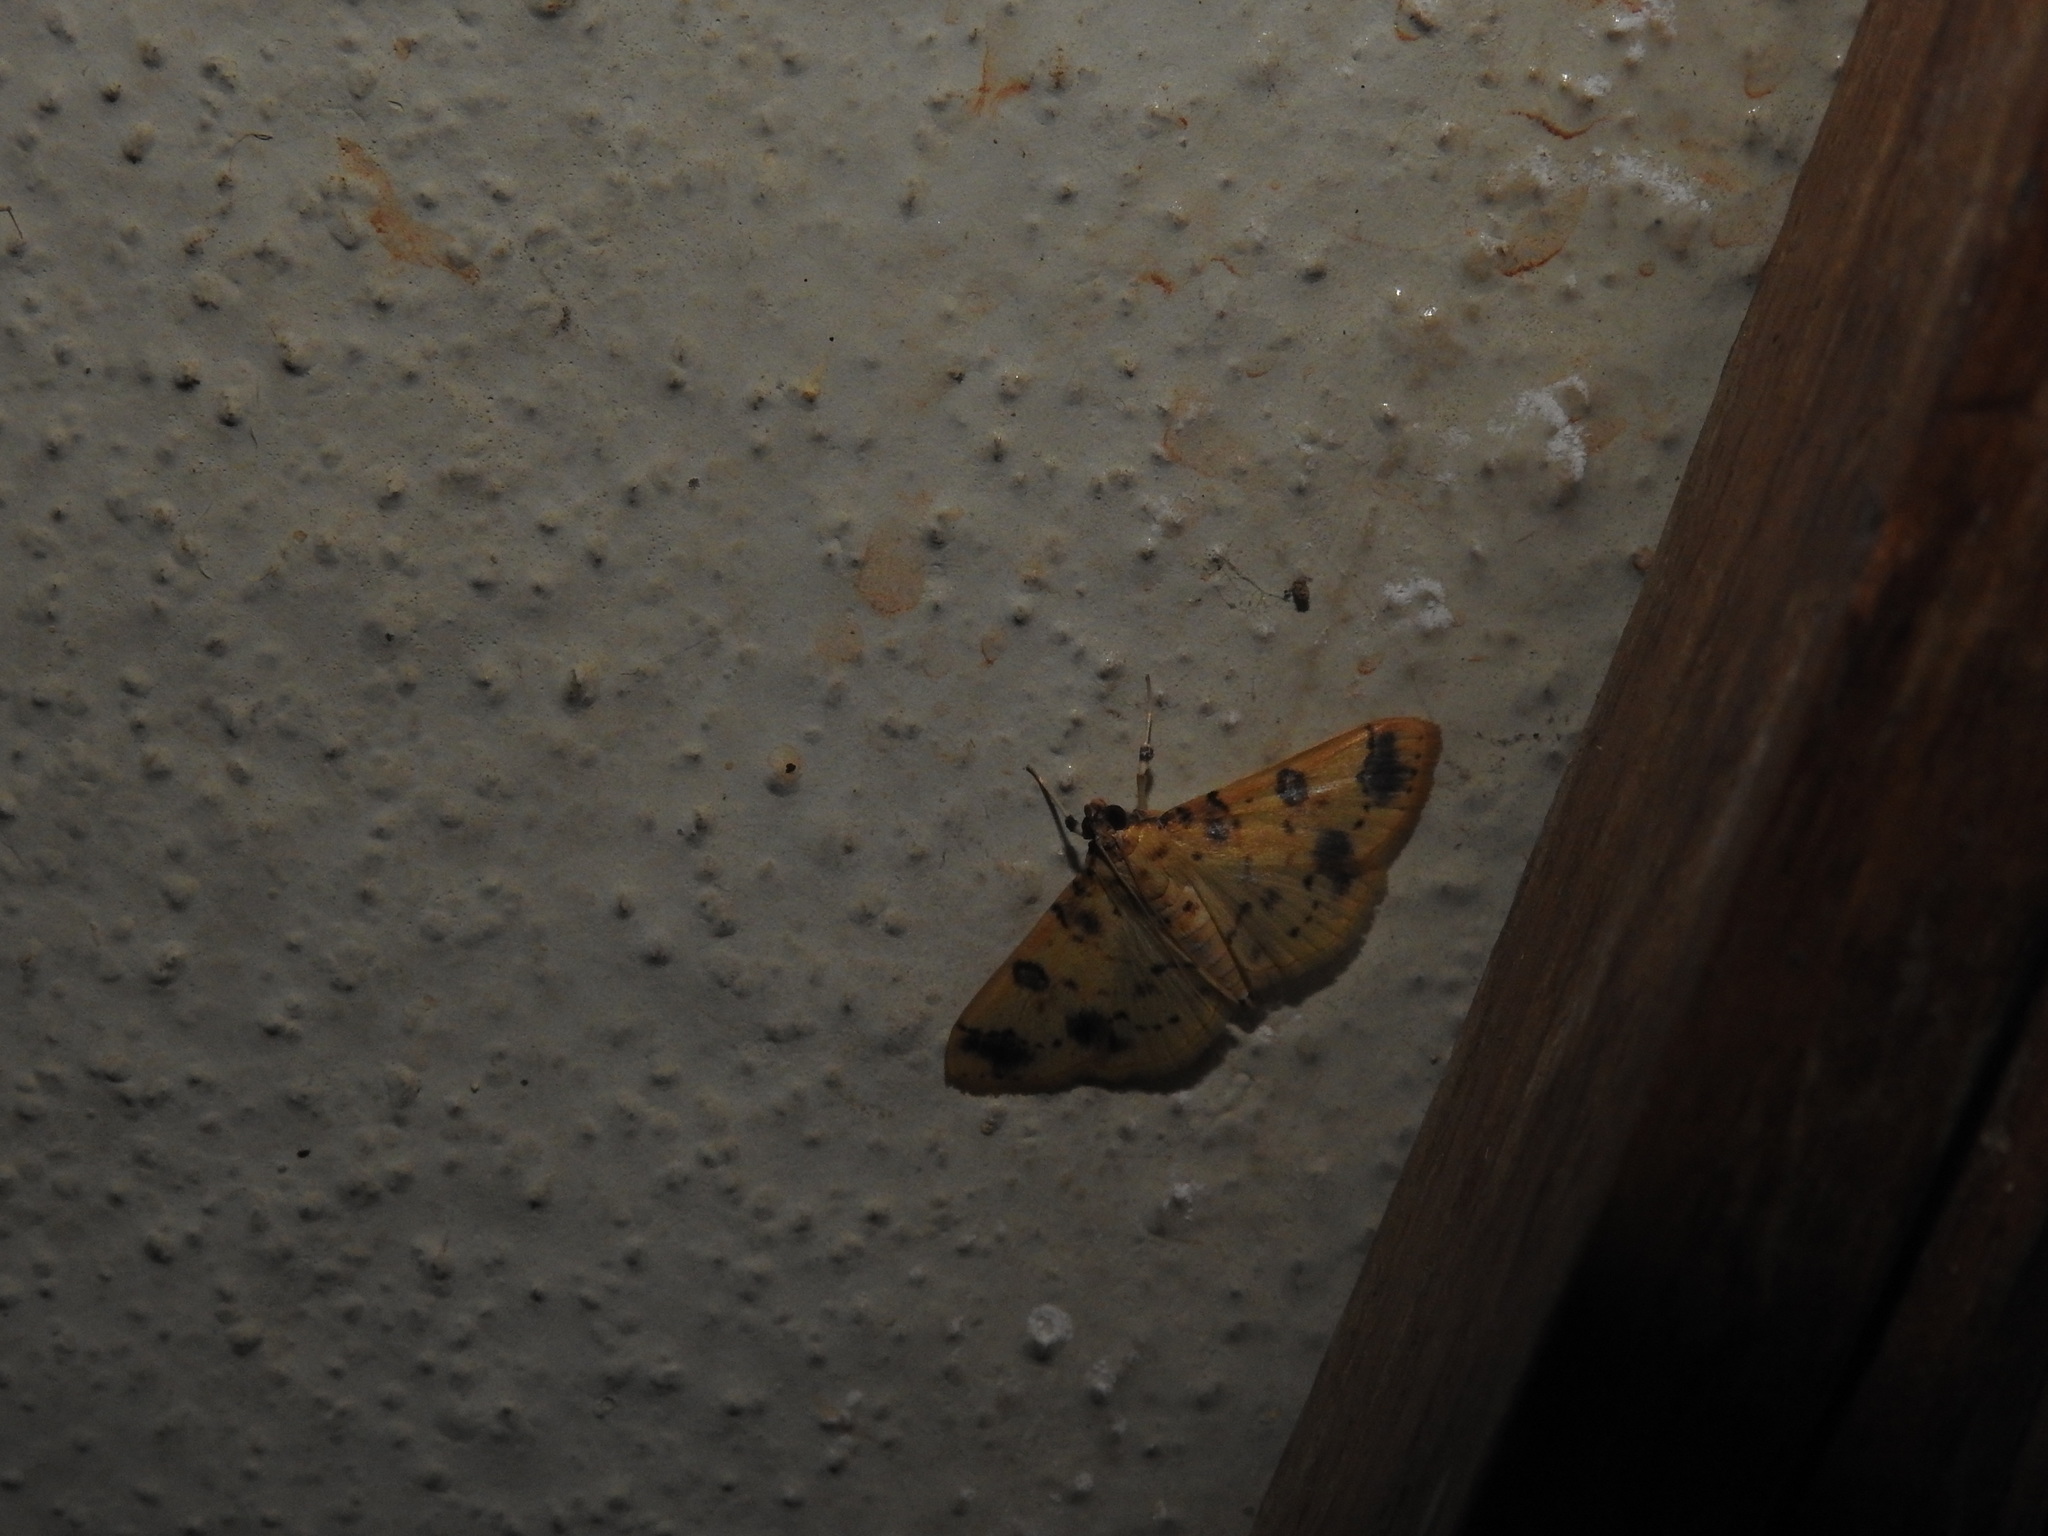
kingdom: Animalia
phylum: Arthropoda
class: Insecta
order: Lepidoptera
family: Crambidae
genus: Patania
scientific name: Patania
